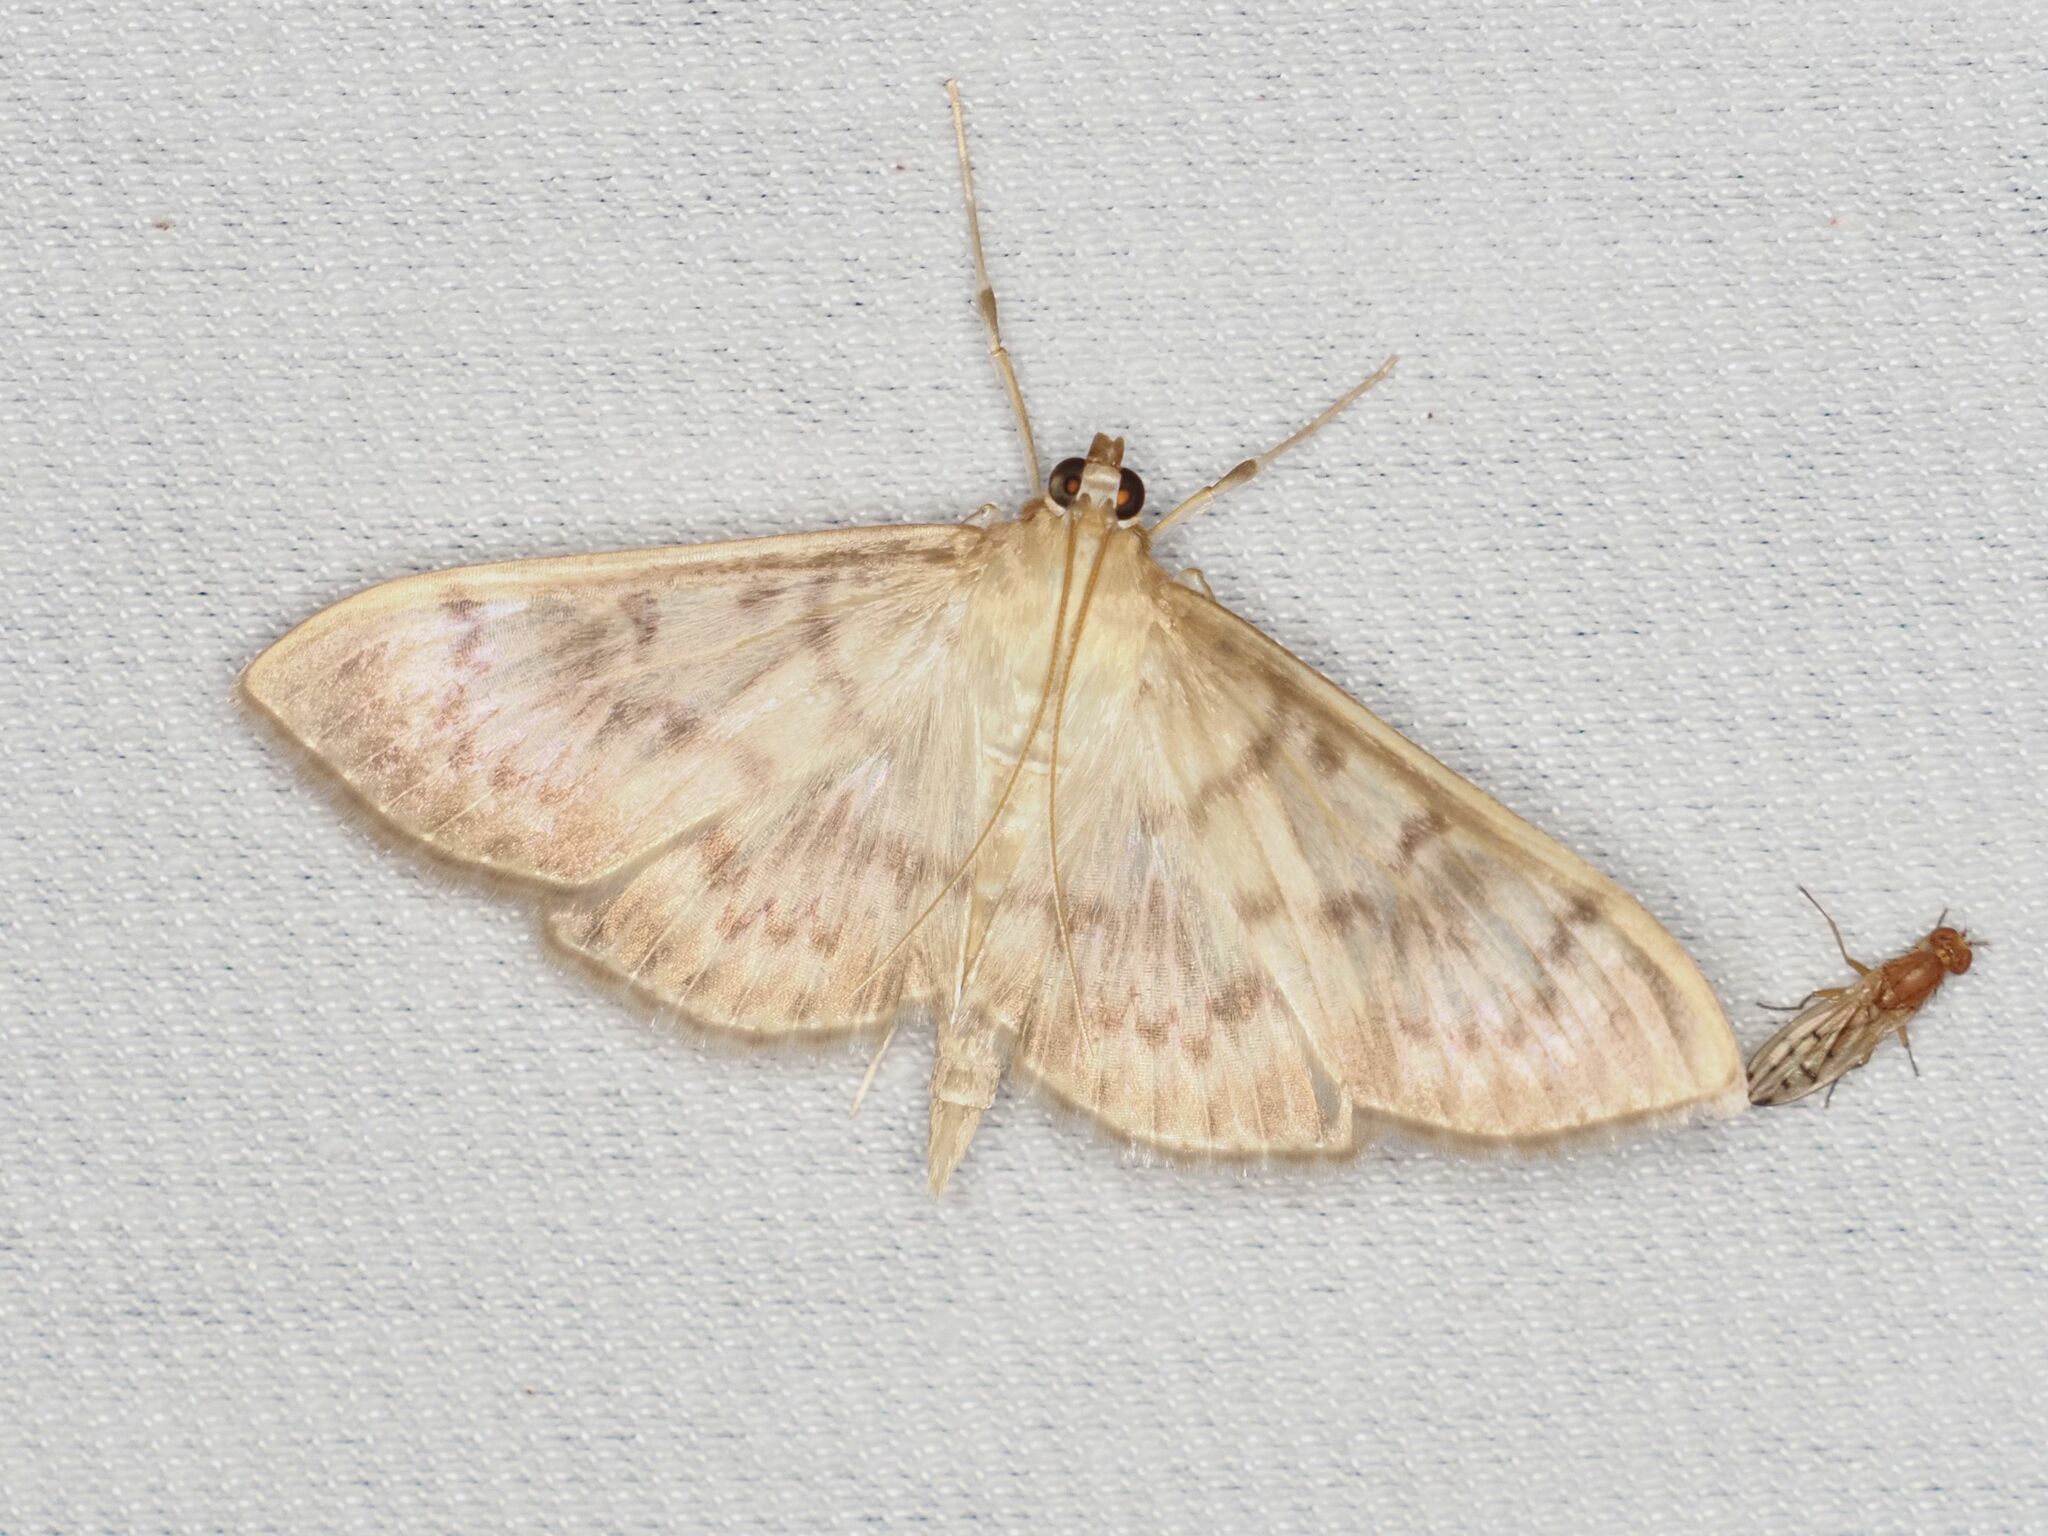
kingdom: Animalia
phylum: Arthropoda
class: Insecta
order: Lepidoptera
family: Crambidae
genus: Patania
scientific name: Patania ruralis
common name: Mother of pearl
